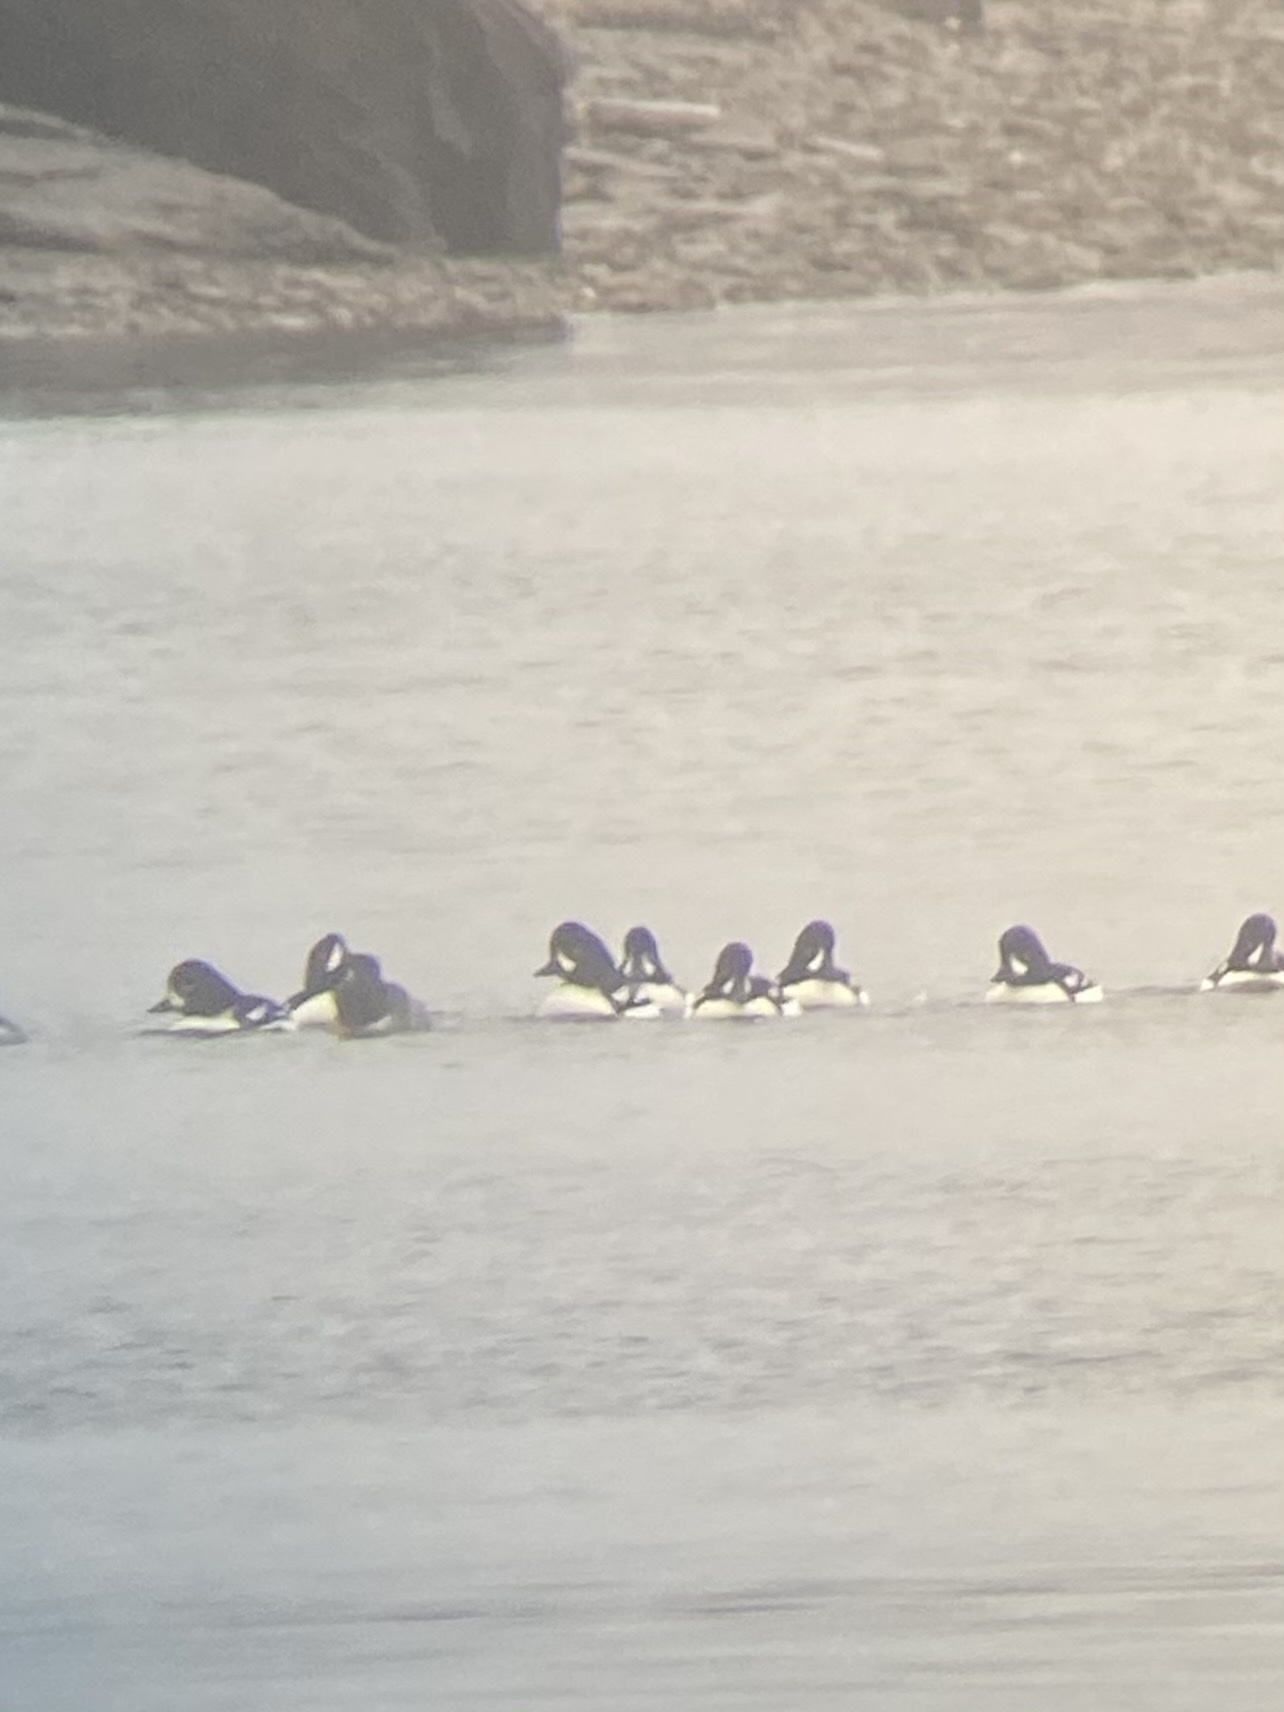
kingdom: Animalia
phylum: Chordata
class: Aves
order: Anseriformes
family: Anatidae
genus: Bucephala
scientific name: Bucephala islandica
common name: Barrow's goldeneye
